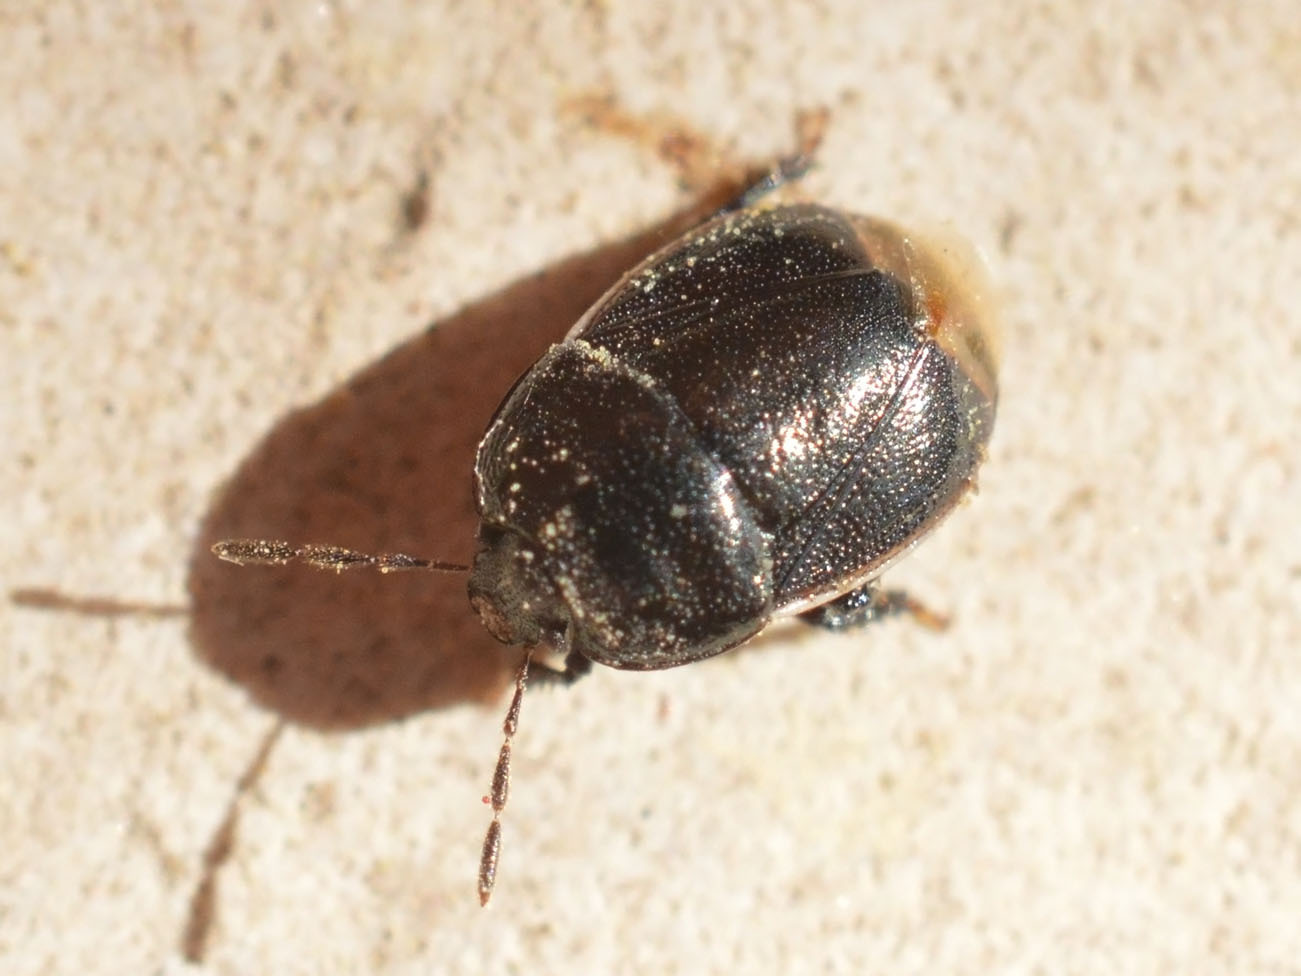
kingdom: Animalia
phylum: Arthropoda
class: Insecta
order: Hemiptera
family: Cydnidae
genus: Legnotus
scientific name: Legnotus limbosus
